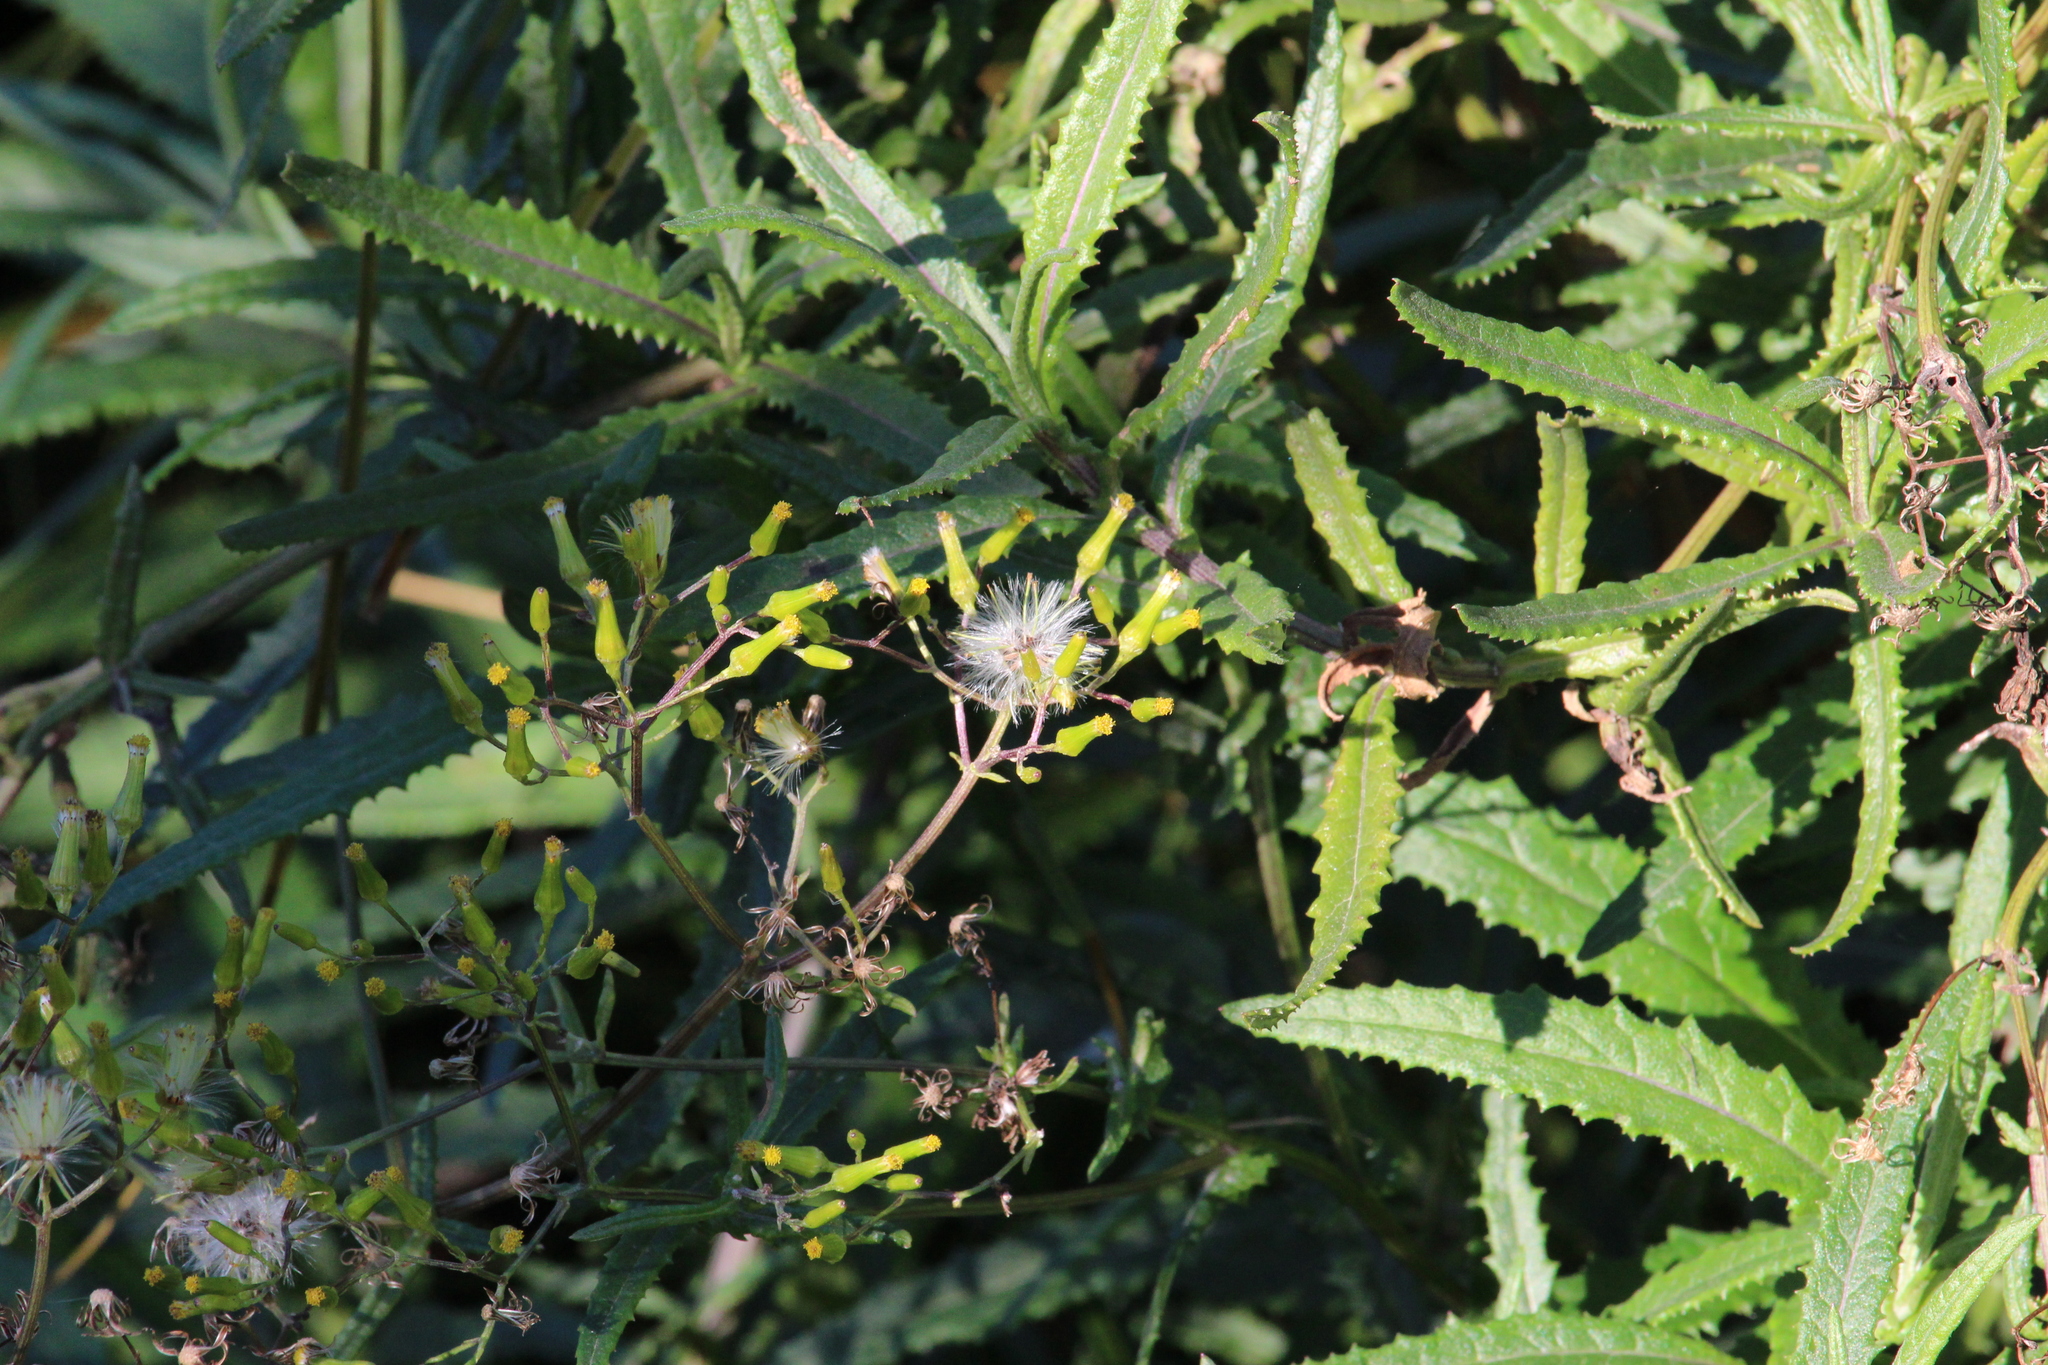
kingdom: Plantae
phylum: Tracheophyta
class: Magnoliopsida
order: Asterales
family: Asteraceae
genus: Senecio
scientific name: Senecio minimus
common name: Toothed fireweed
